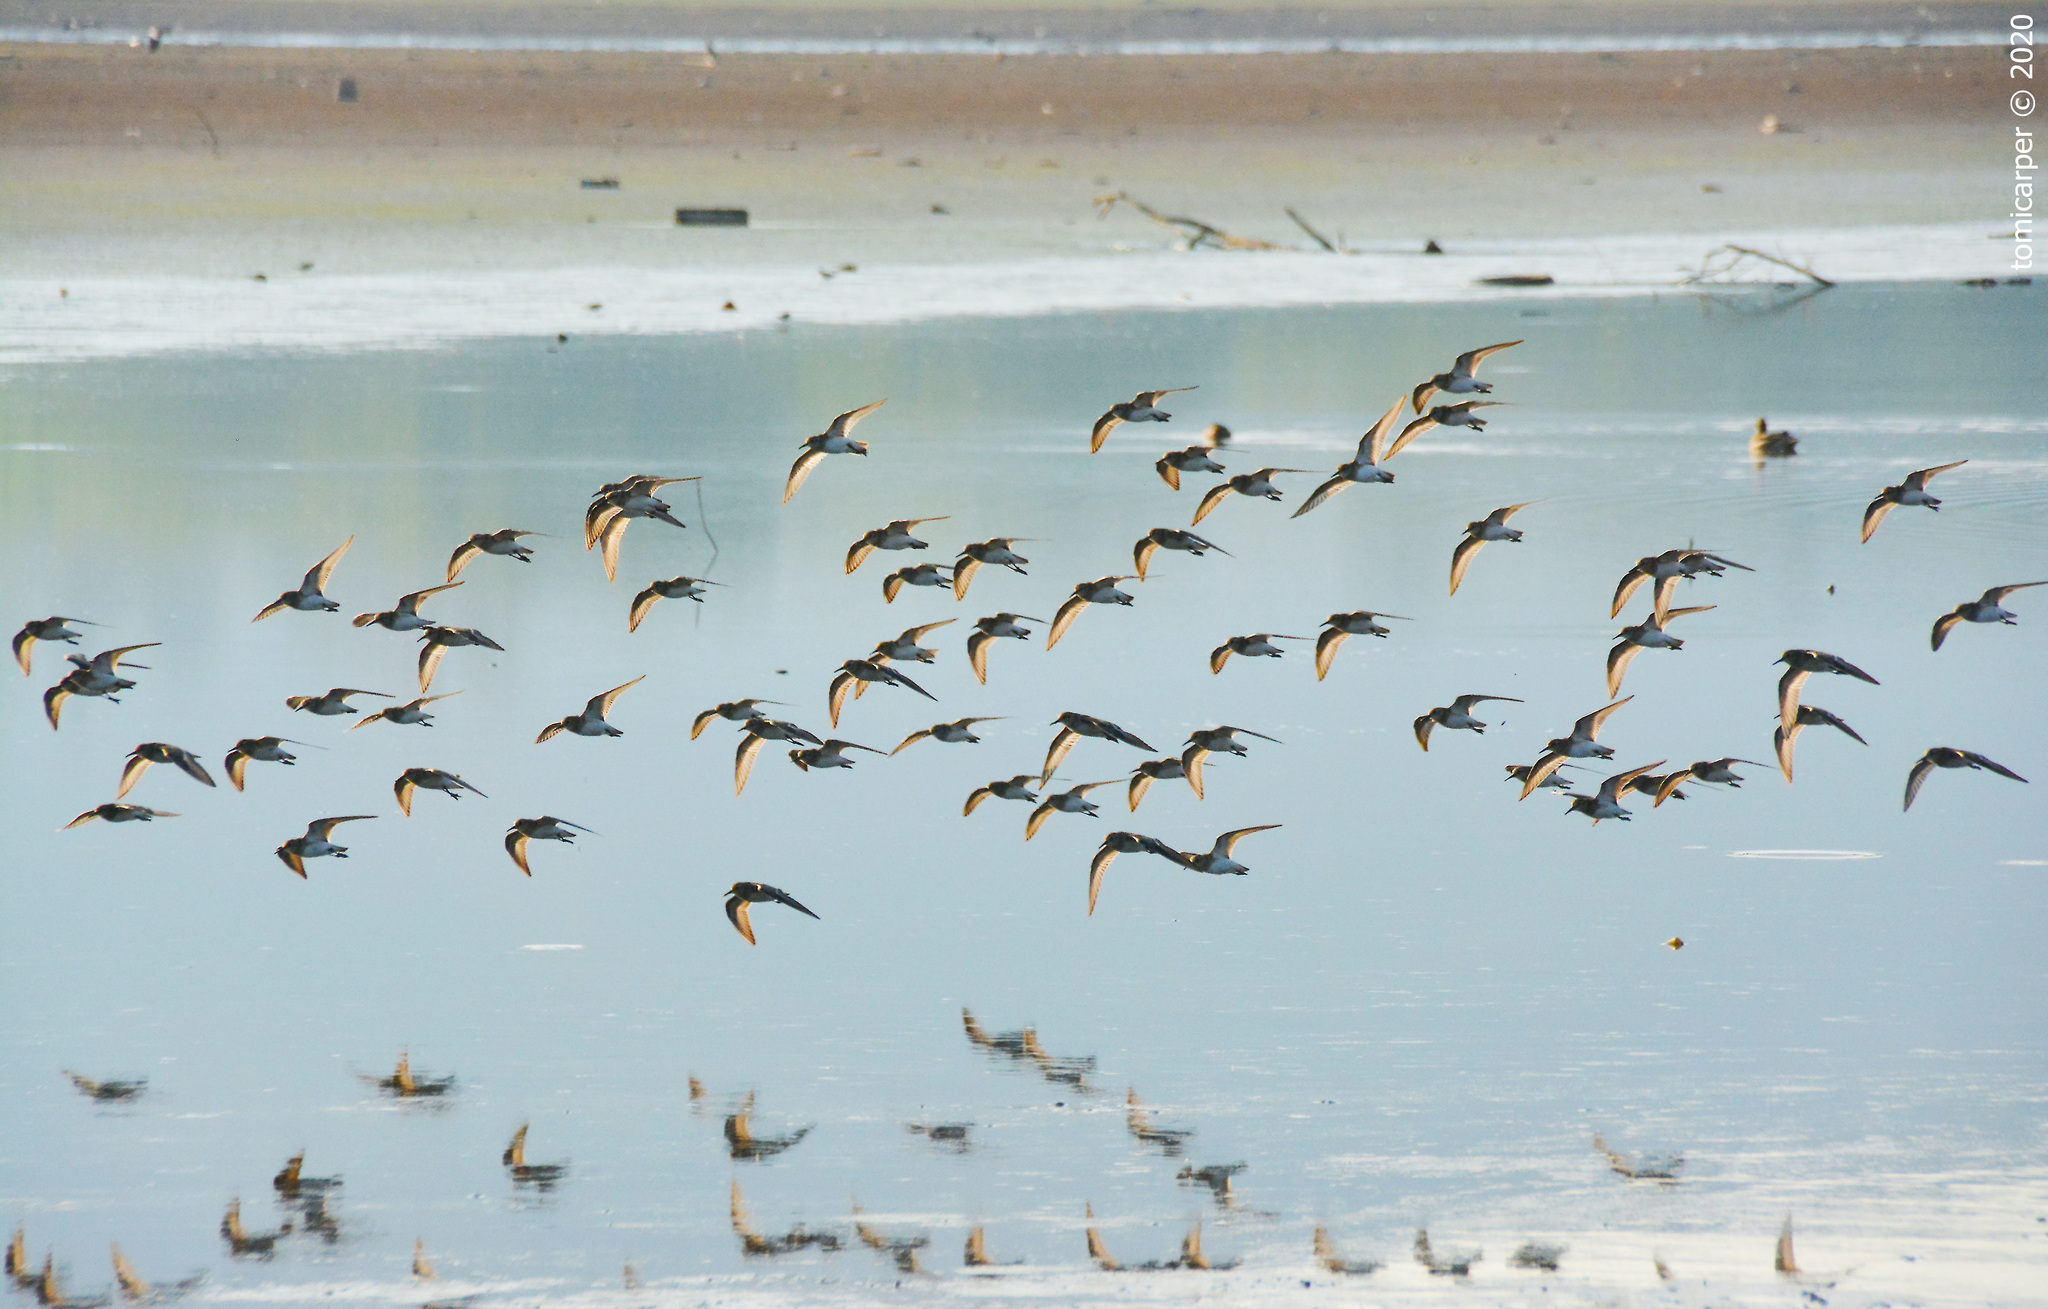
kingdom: Animalia
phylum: Chordata
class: Aves
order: Charadriiformes
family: Scolopacidae
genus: Calidris
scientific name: Calidris bairdii
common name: Baird's sandpiper
